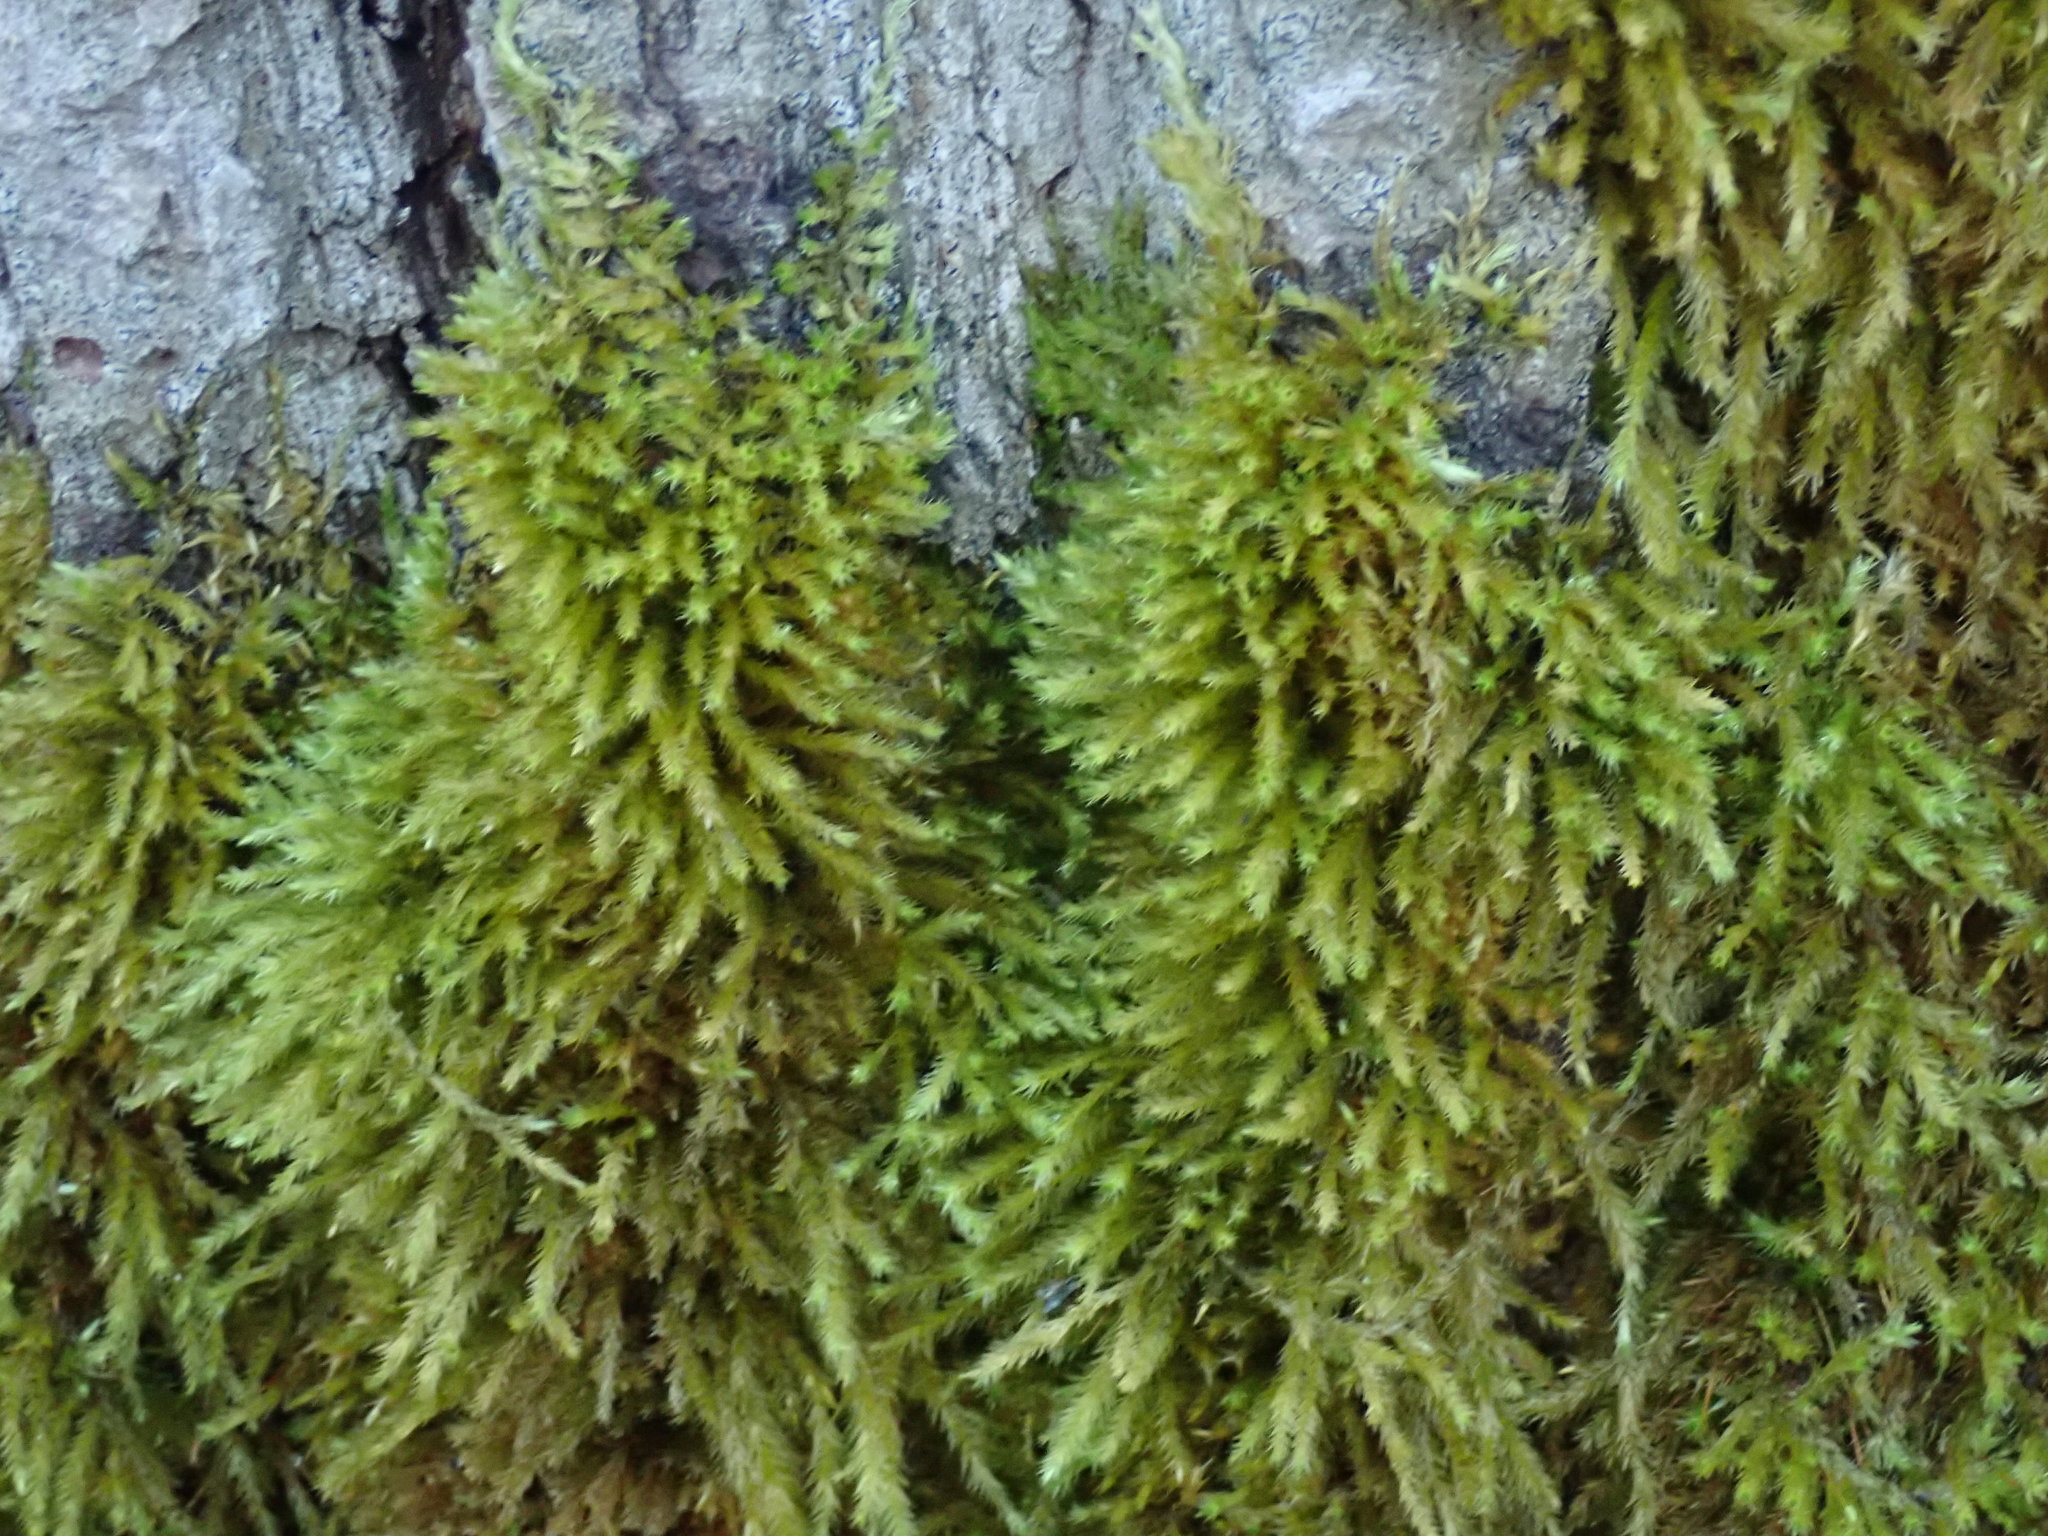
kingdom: Plantae
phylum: Bryophyta
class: Bryopsida
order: Hypnales
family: Brachytheciaceae
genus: Homalothecium
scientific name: Homalothecium fulgescens
